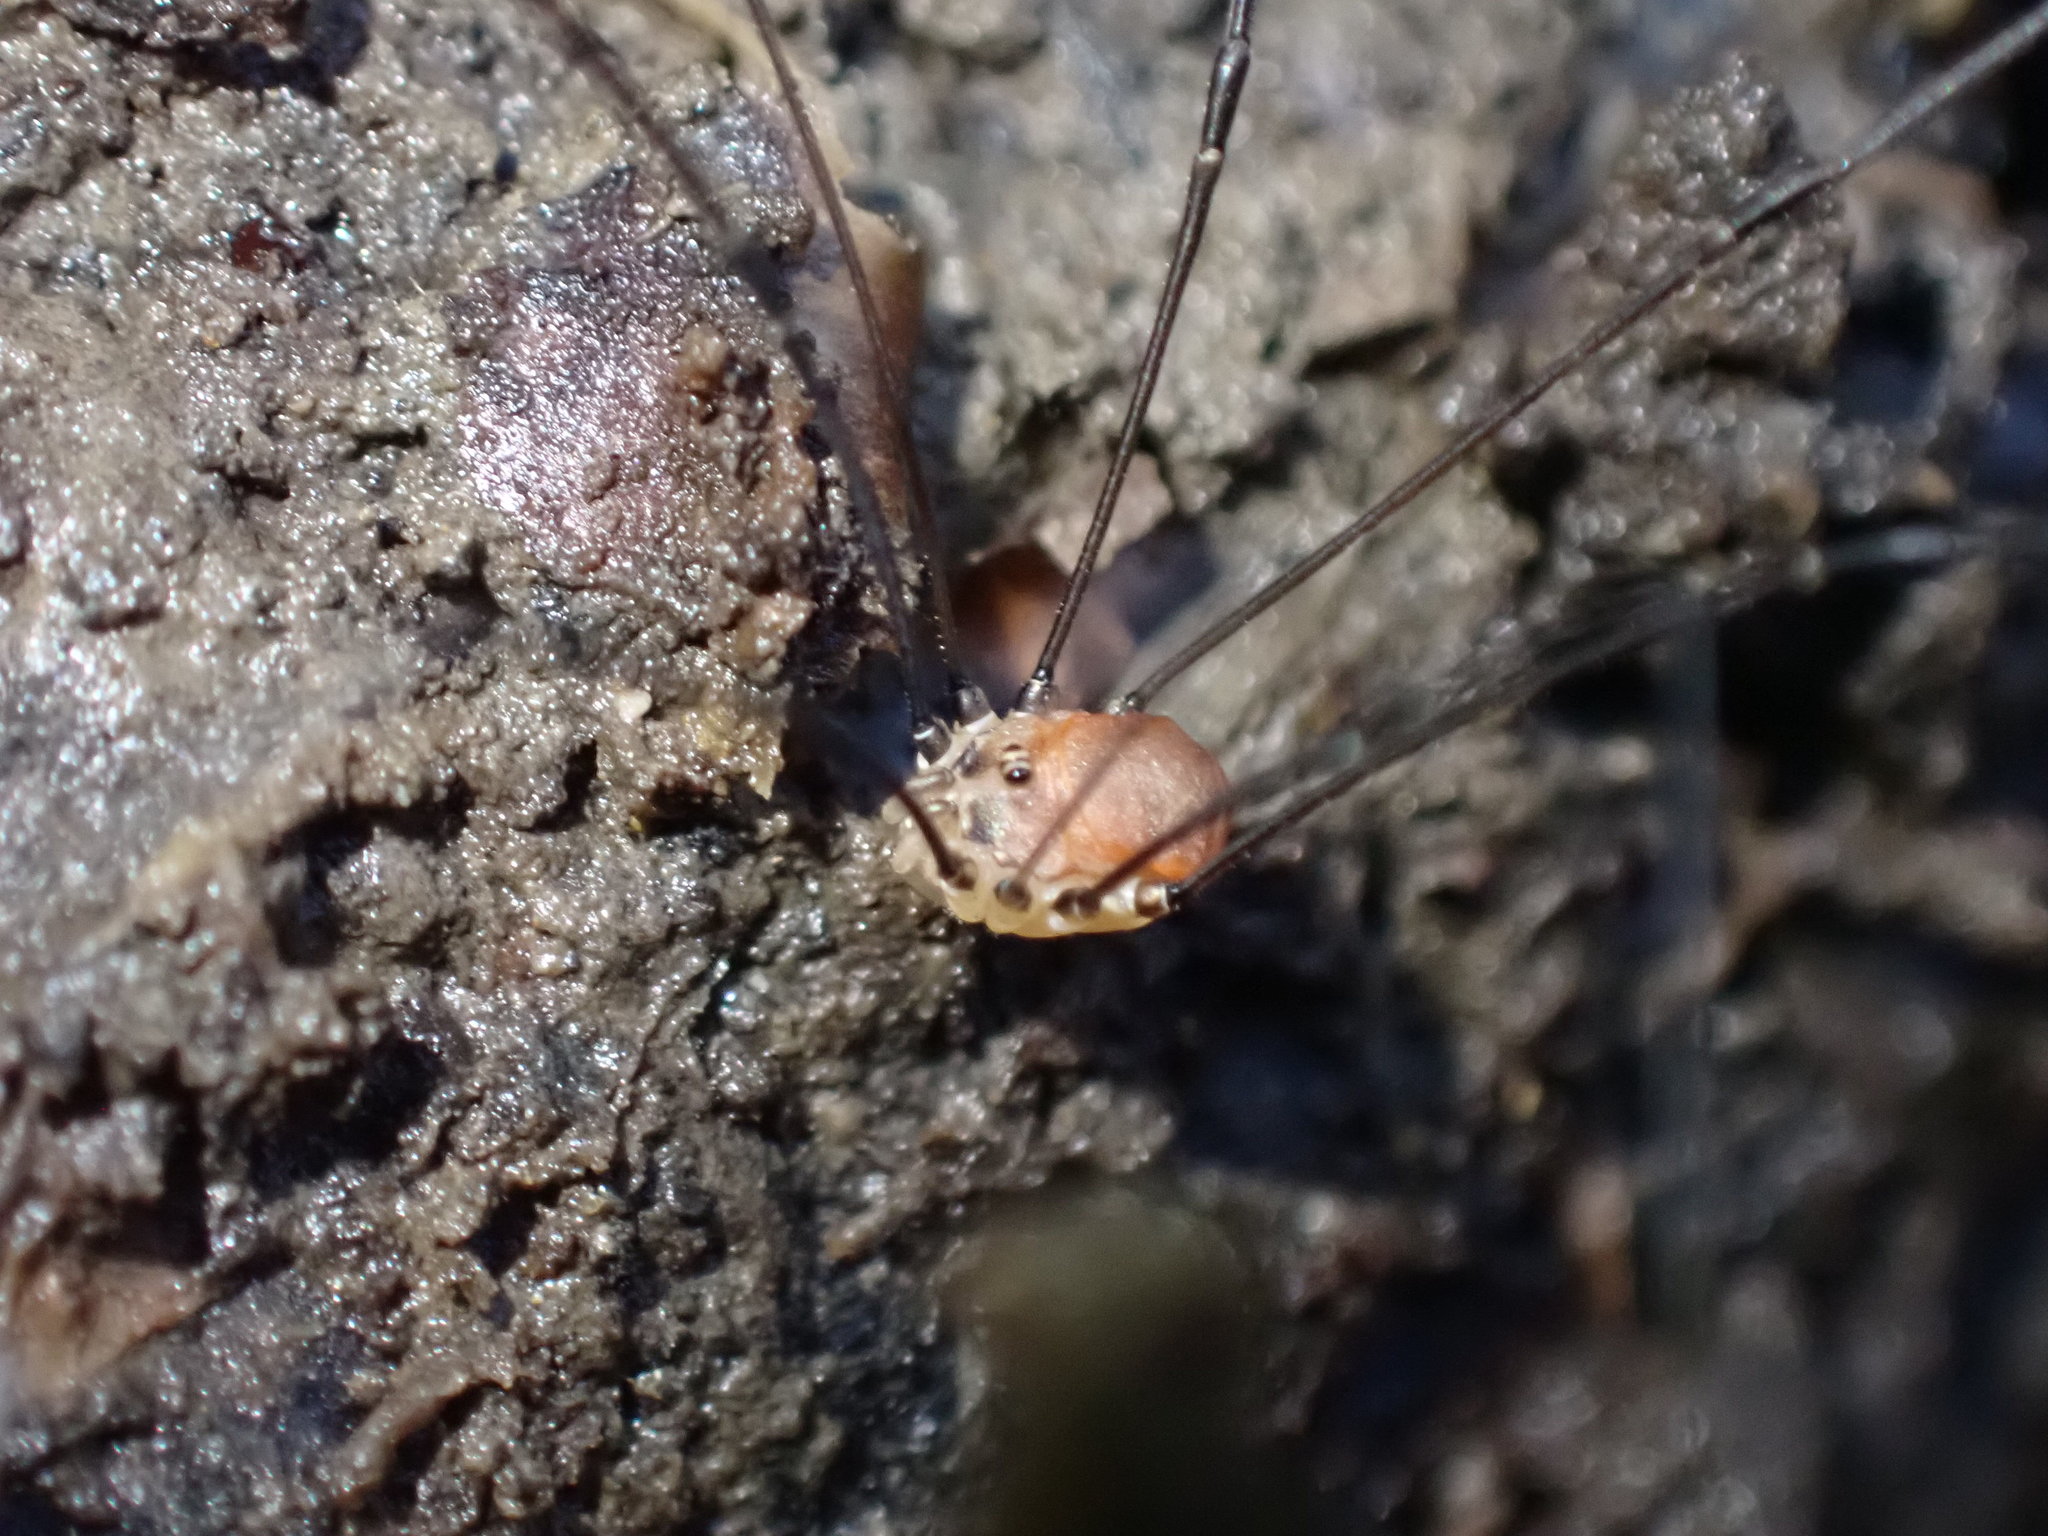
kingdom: Animalia
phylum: Arthropoda
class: Arachnida
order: Opiliones
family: Sclerosomatidae
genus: Leiobunum
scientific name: Leiobunum blackwalli
